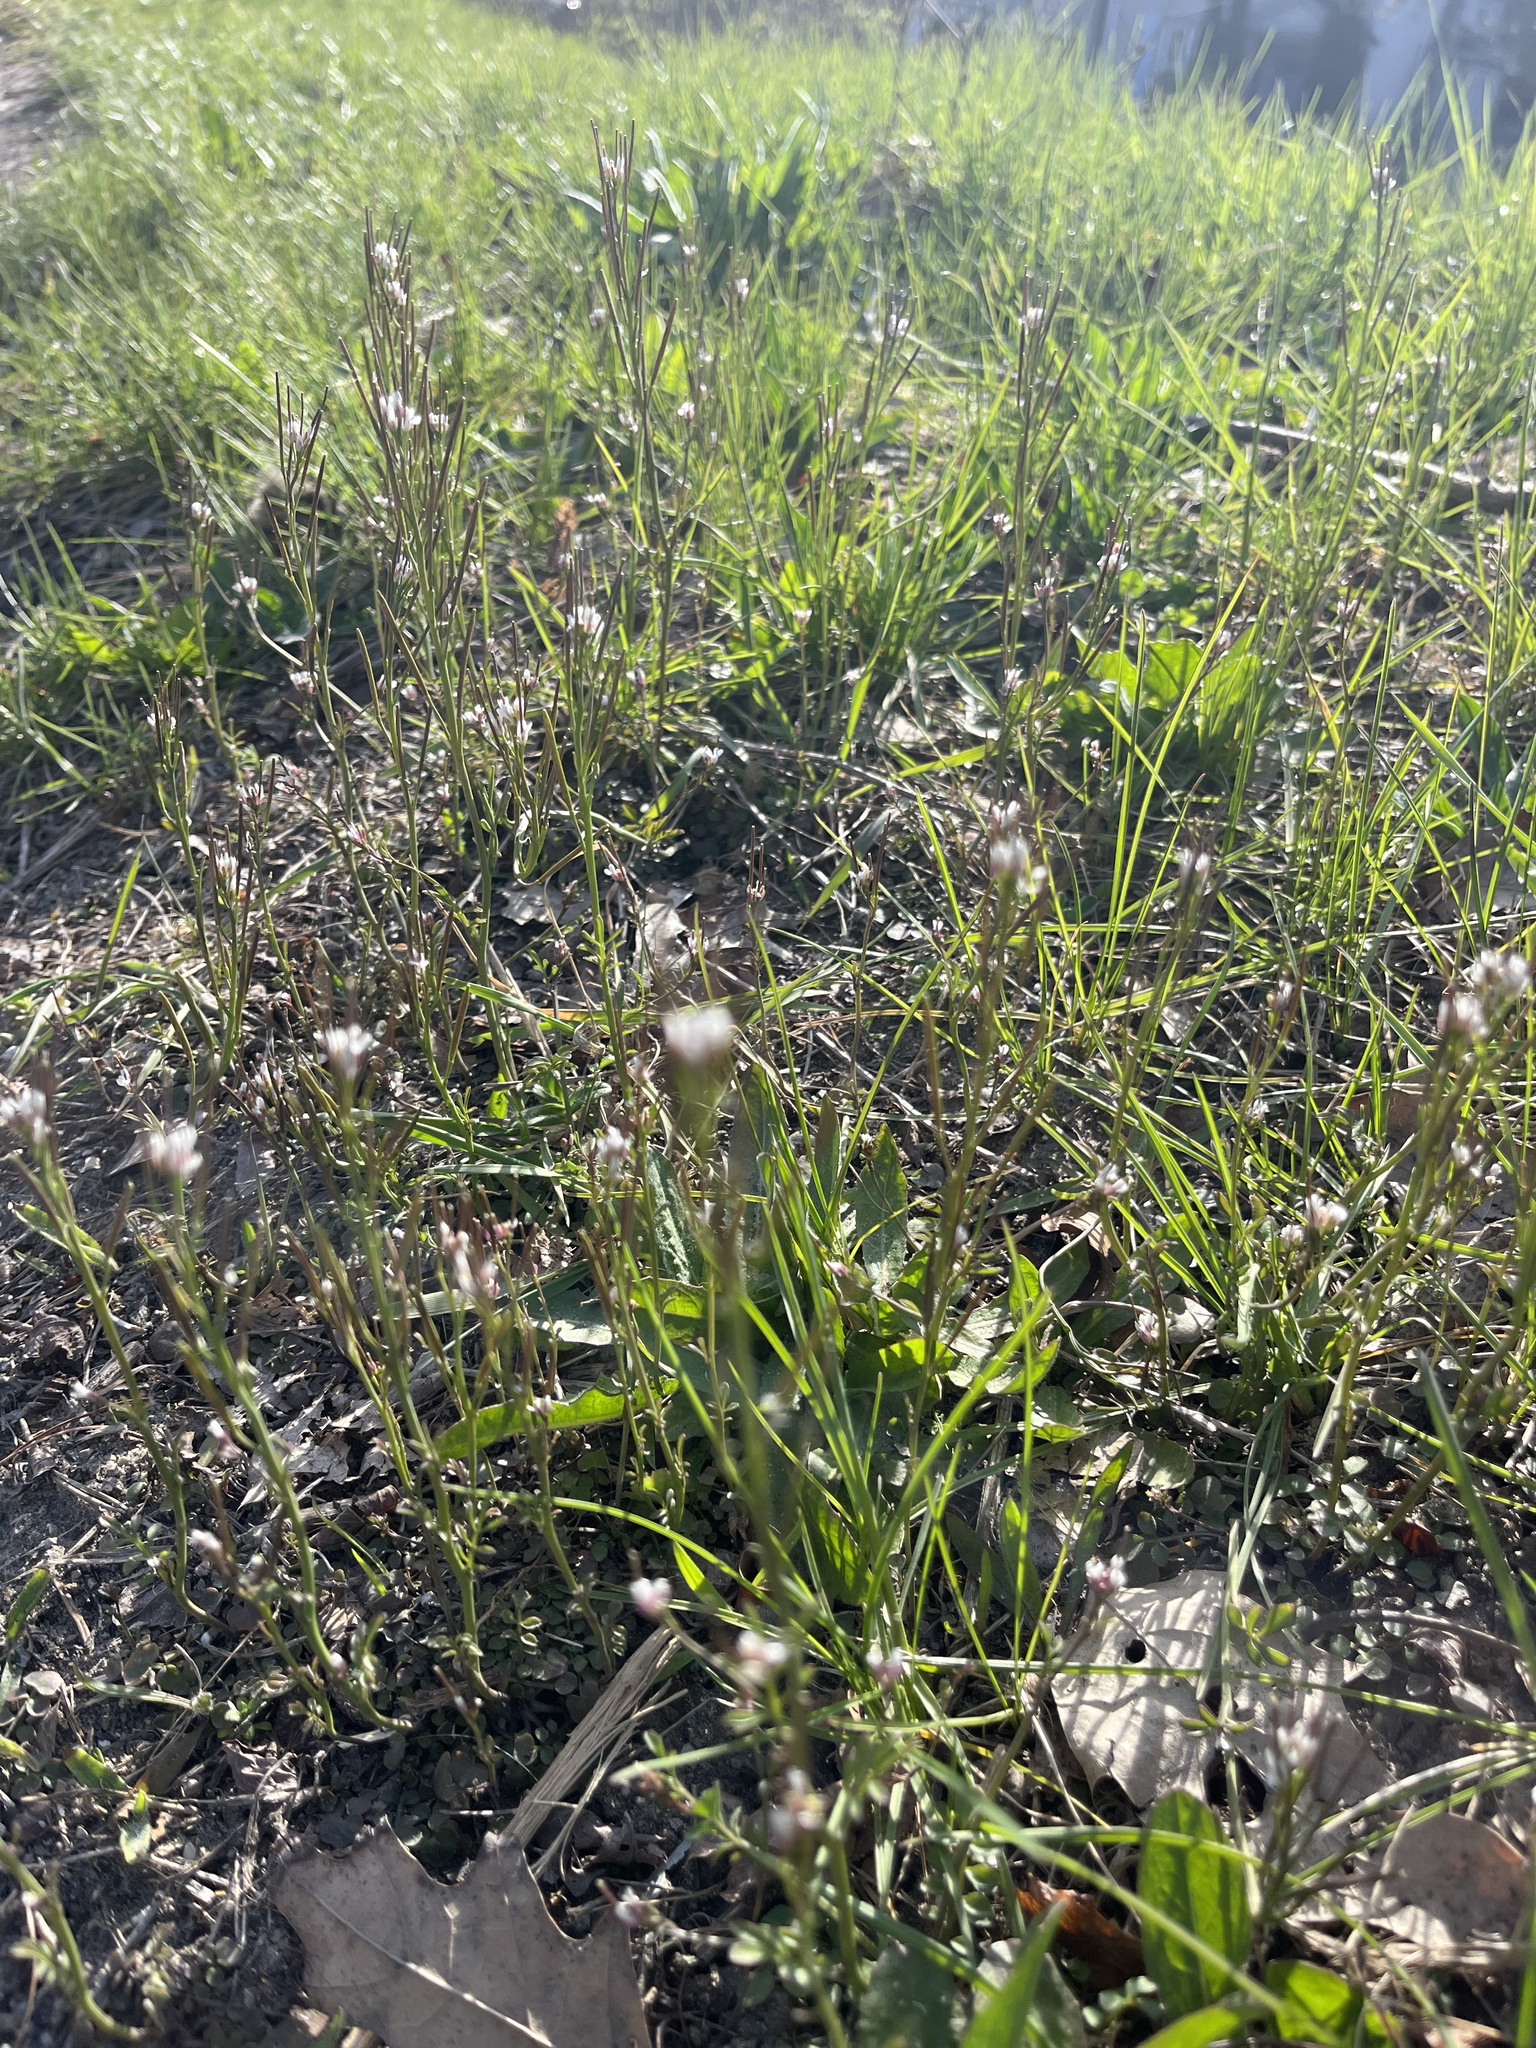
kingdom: Plantae
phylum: Tracheophyta
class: Magnoliopsida
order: Brassicales
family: Brassicaceae
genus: Cardamine
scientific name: Cardamine hirsuta
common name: Hairy bittercress
